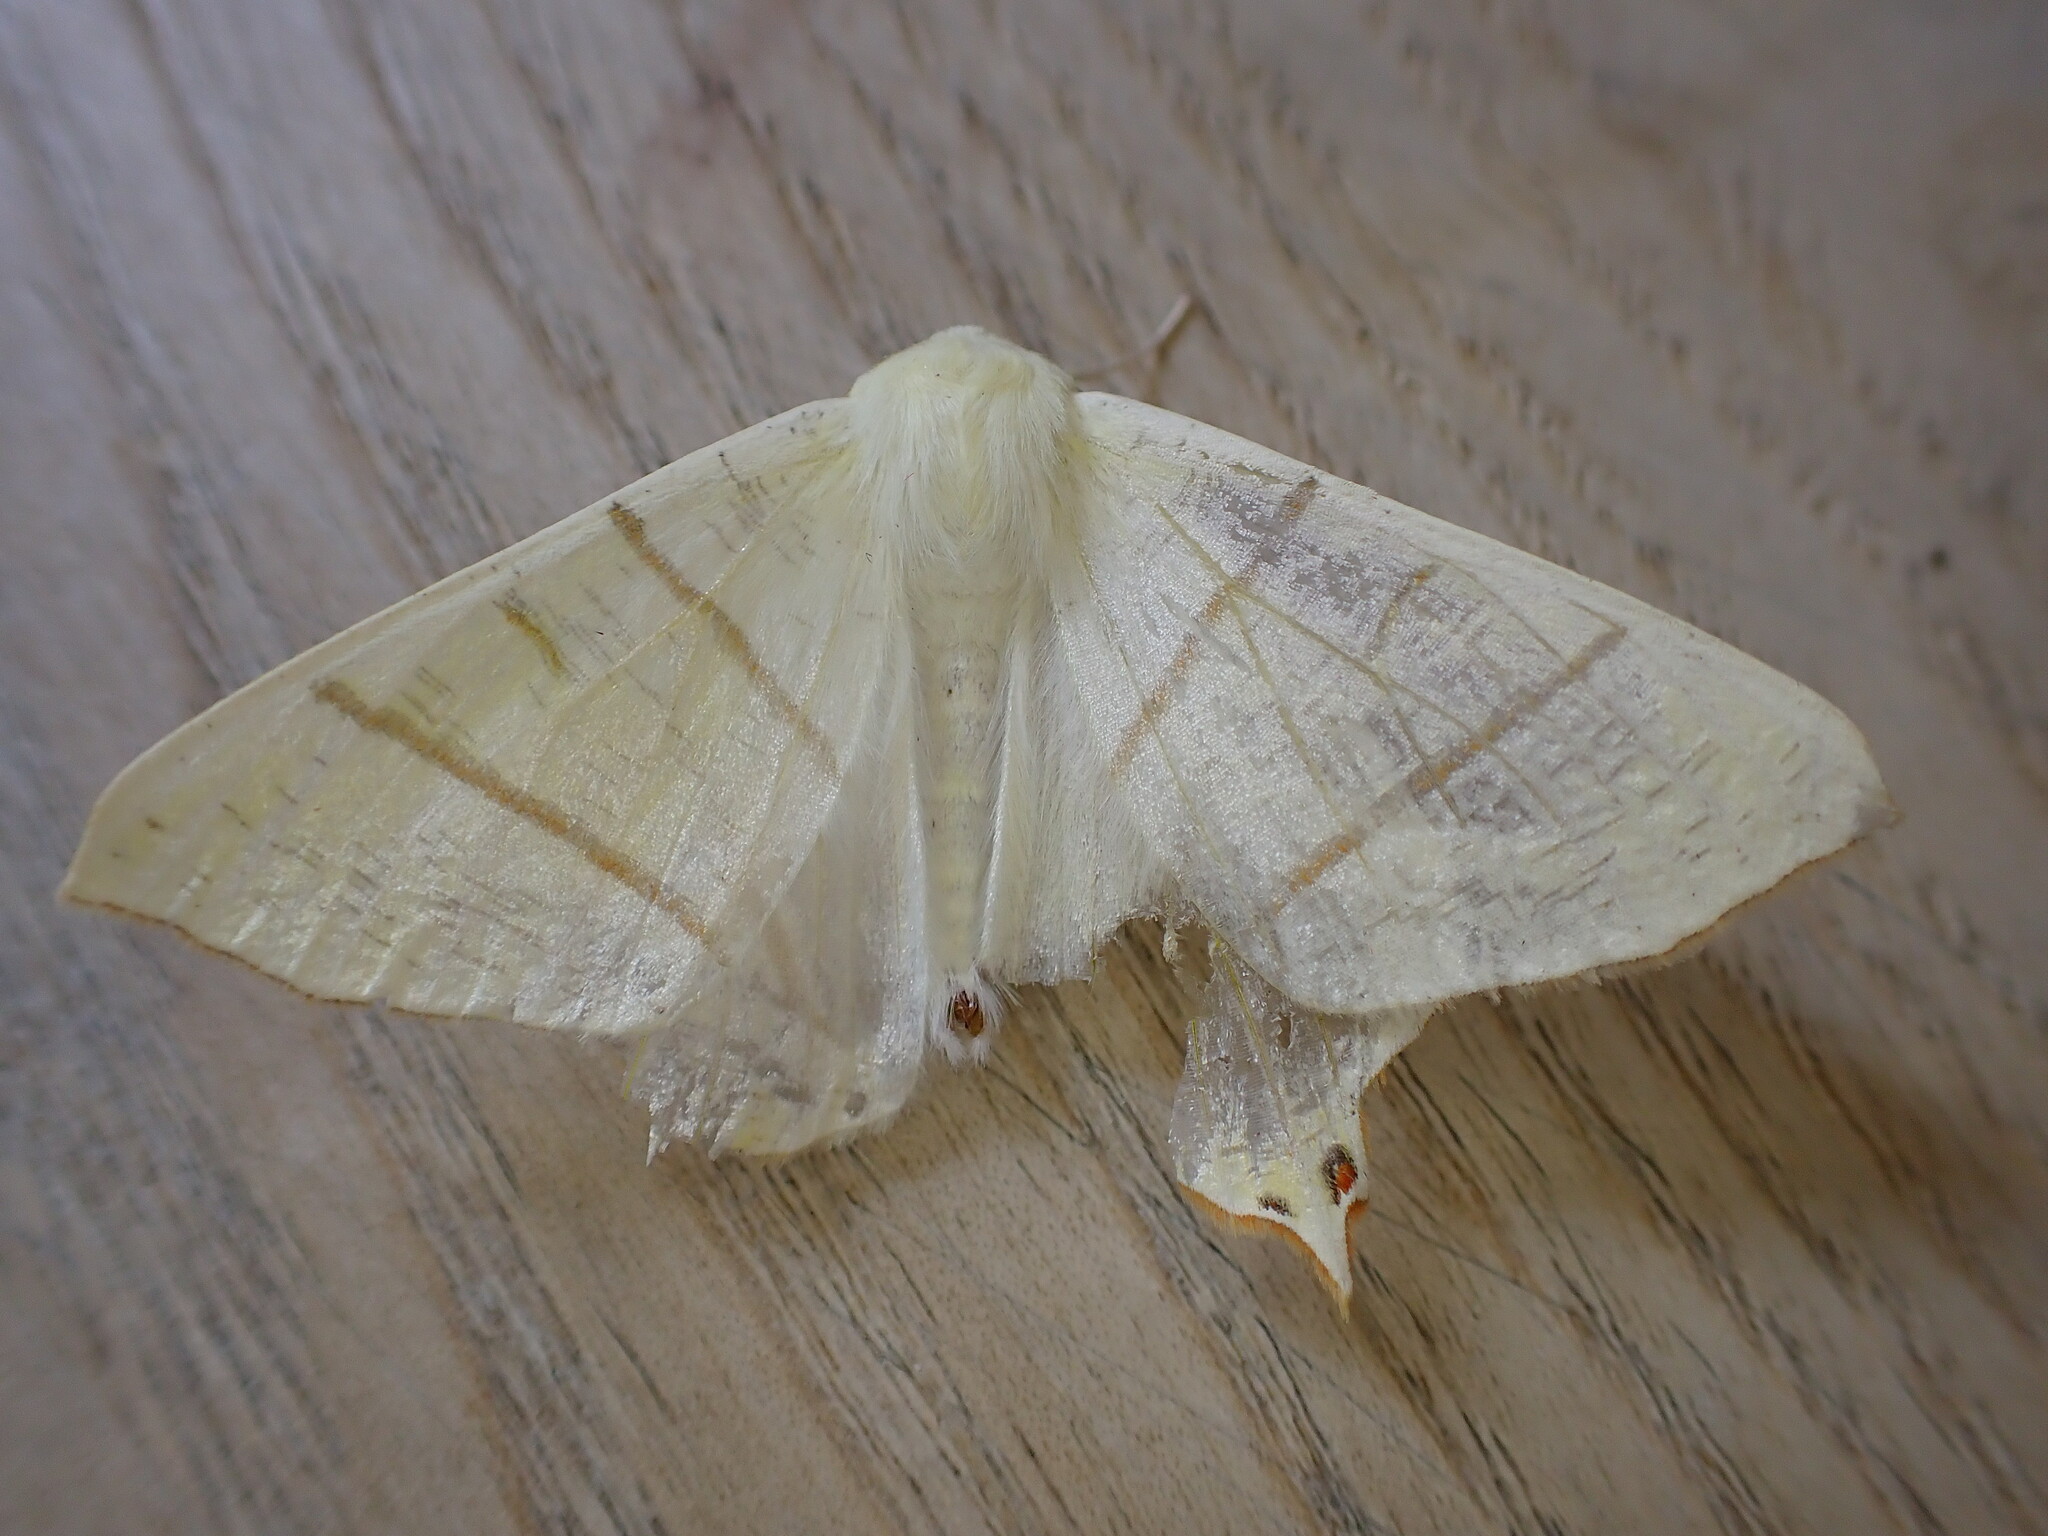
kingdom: Animalia
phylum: Arthropoda
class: Insecta
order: Lepidoptera
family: Geometridae
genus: Ourapteryx
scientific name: Ourapteryx sambucaria
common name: Swallow-tailed moth
